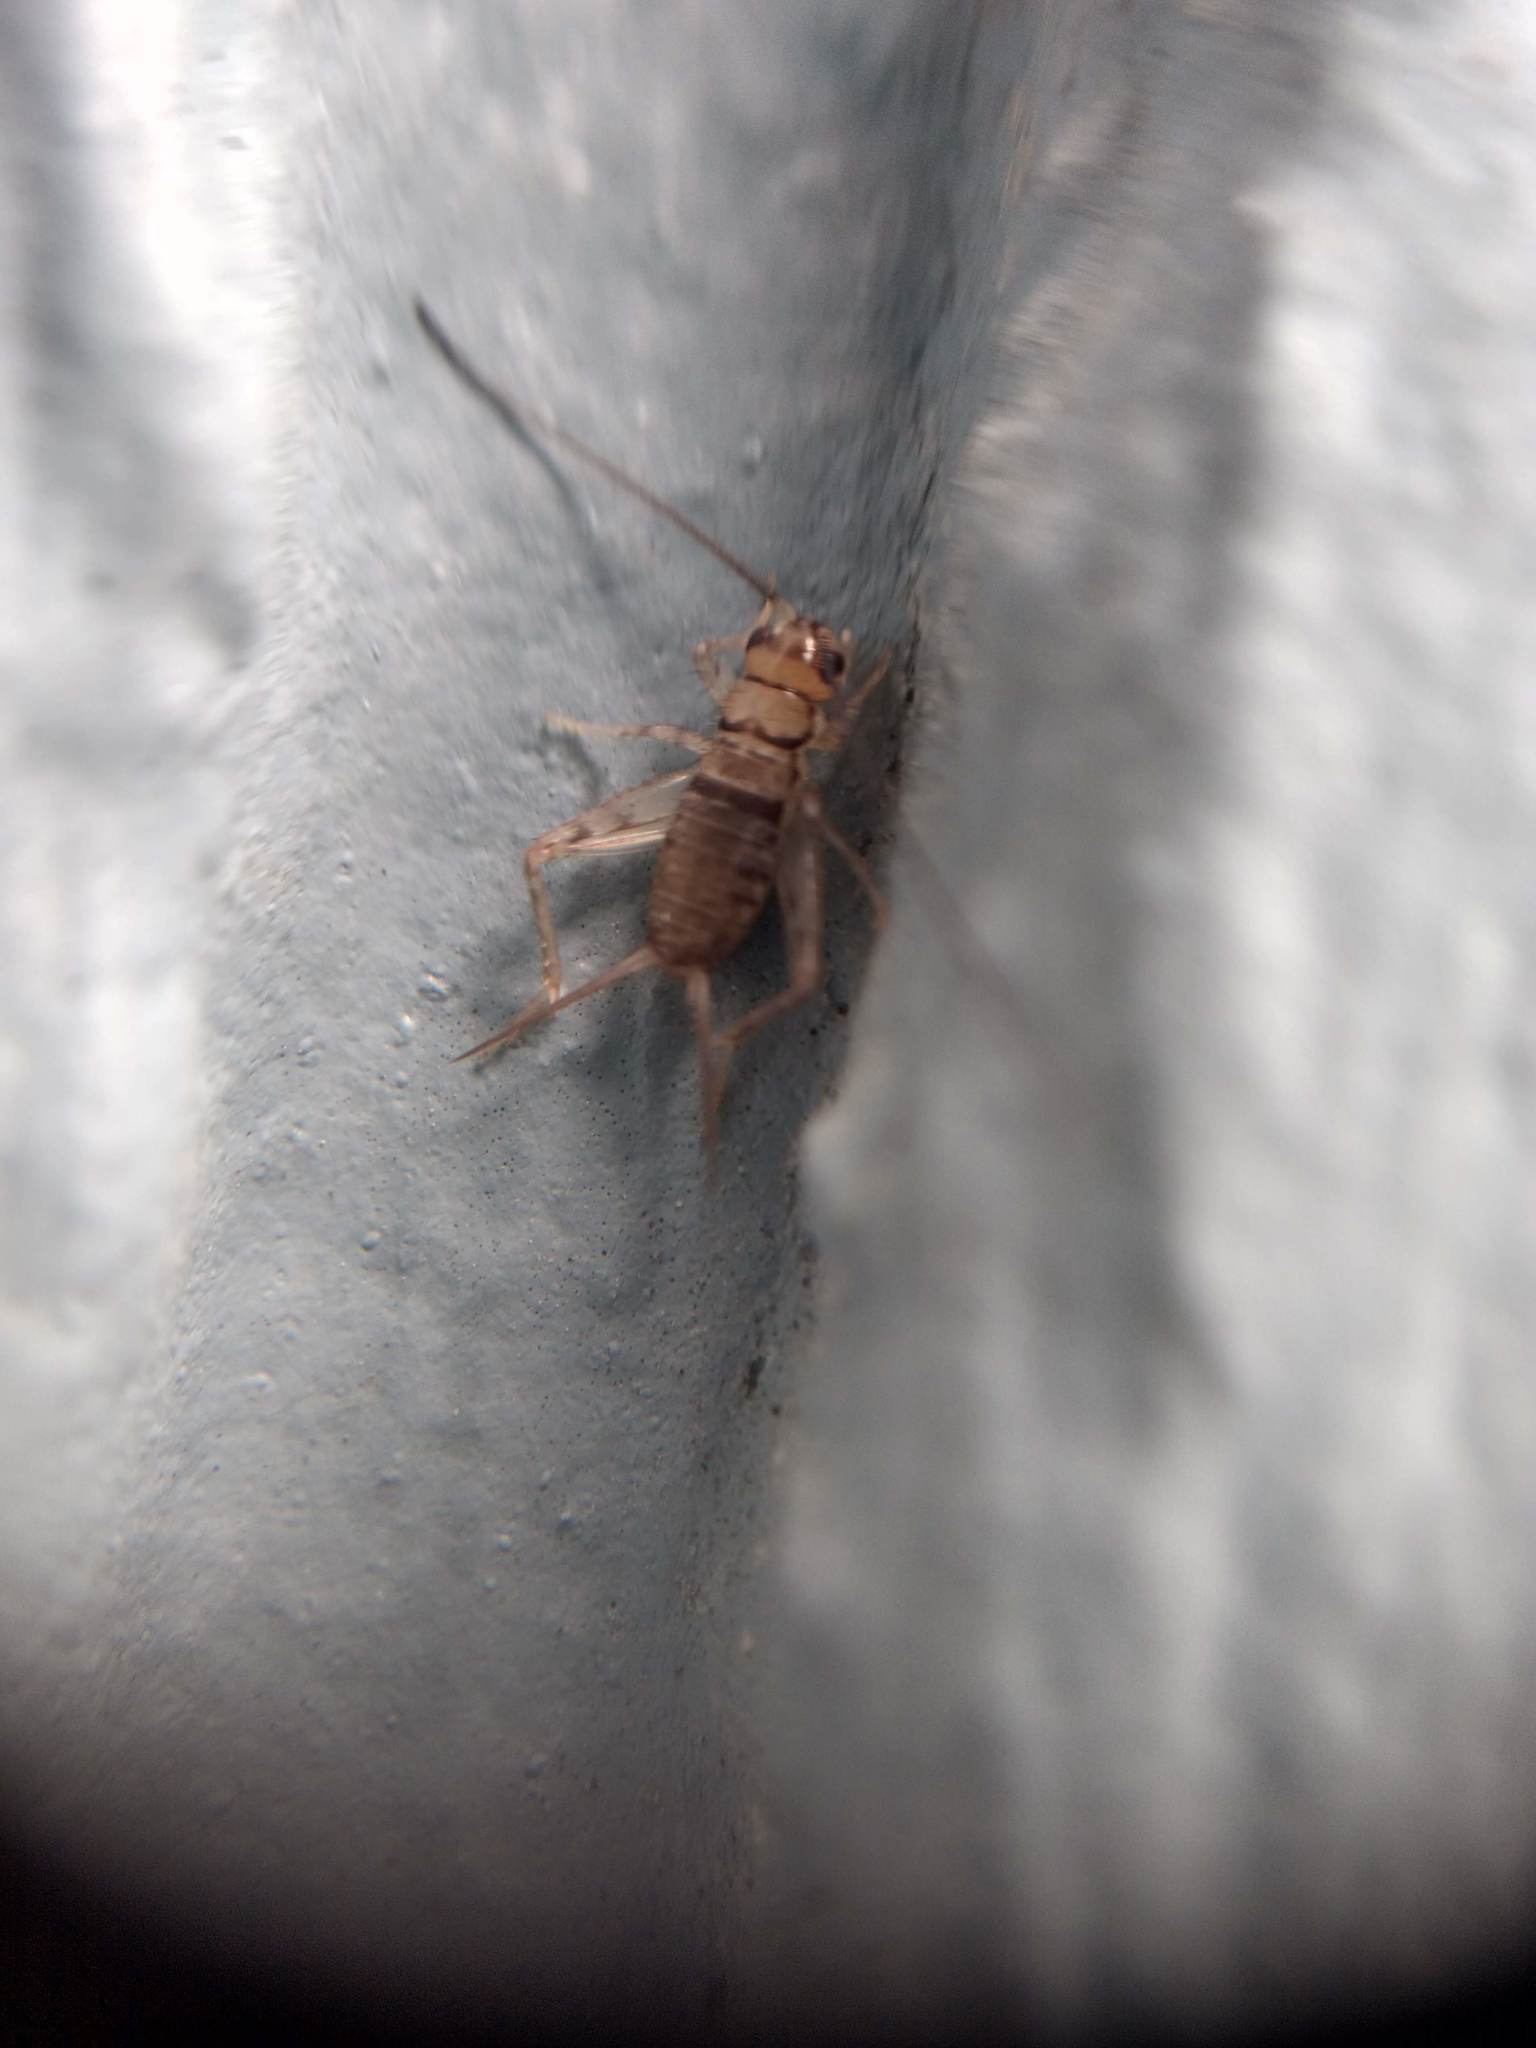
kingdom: Animalia
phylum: Arthropoda
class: Insecta
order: Orthoptera
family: Gryllidae
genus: Gryllodes
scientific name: Gryllodes sigillatus
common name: Tropical house cricket
